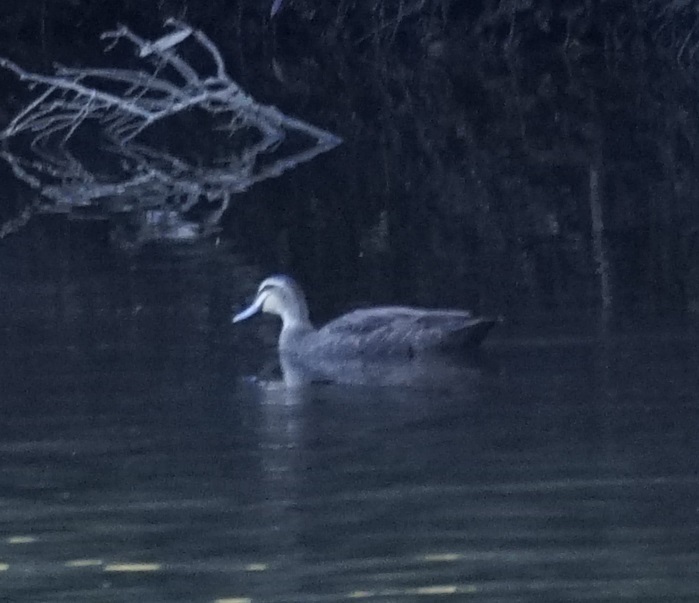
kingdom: Animalia
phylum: Chordata
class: Aves
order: Anseriformes
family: Anatidae
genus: Anas
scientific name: Anas superciliosa
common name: Pacific black duck
